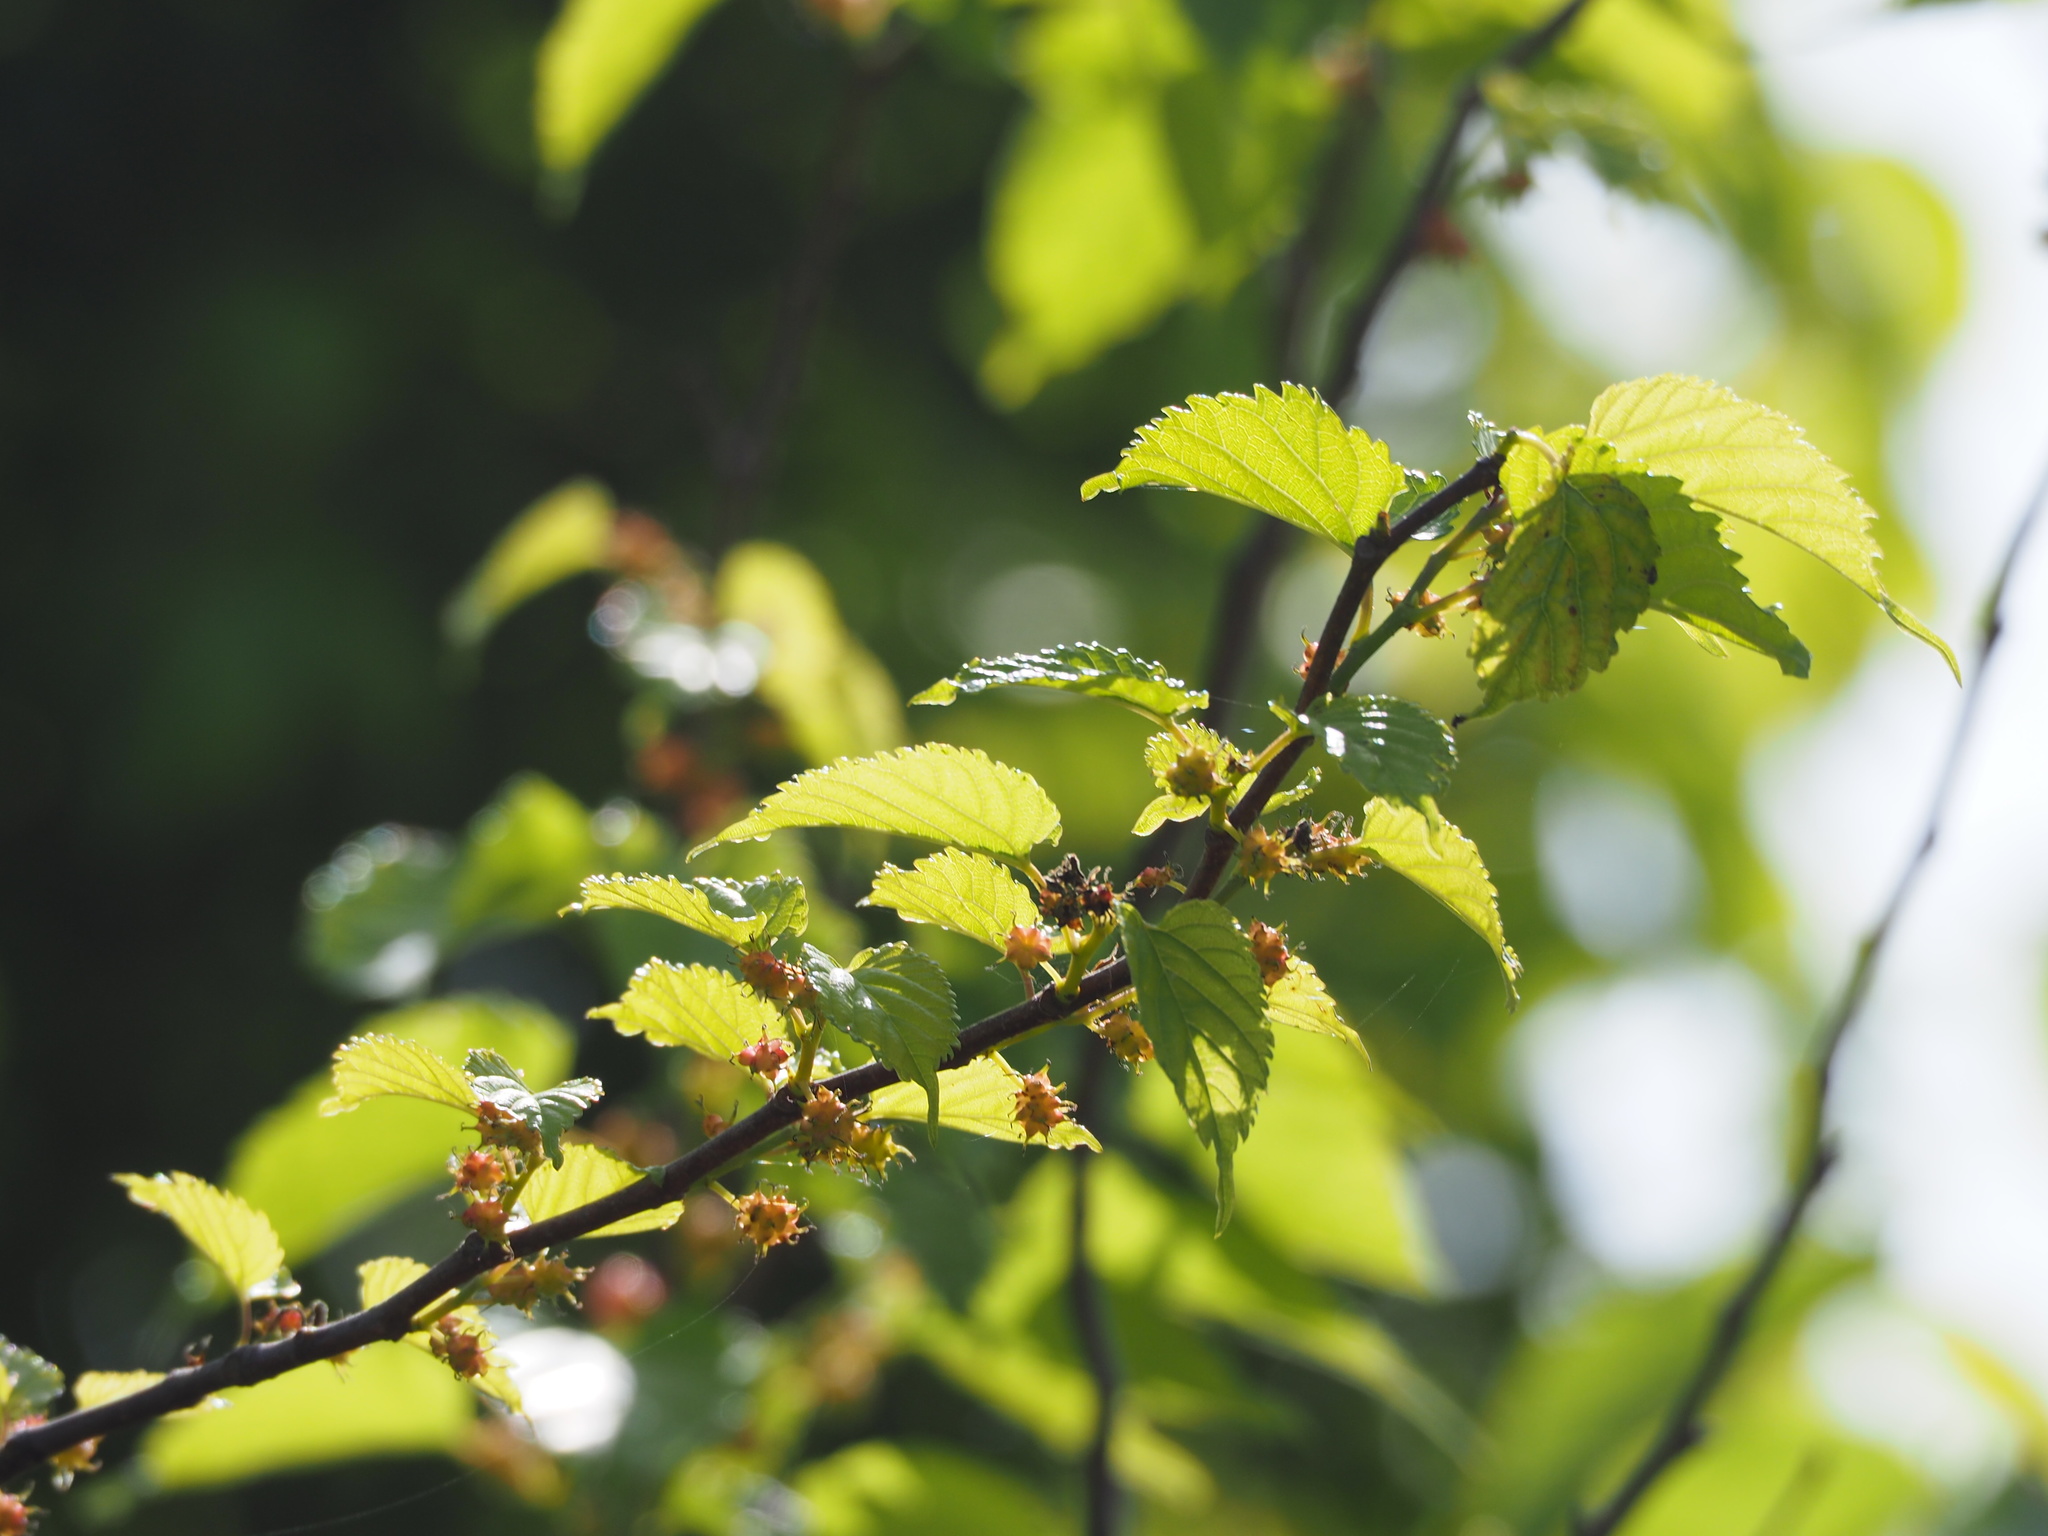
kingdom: Plantae
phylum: Tracheophyta
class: Magnoliopsida
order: Rosales
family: Moraceae
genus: Morus
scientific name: Morus indica
